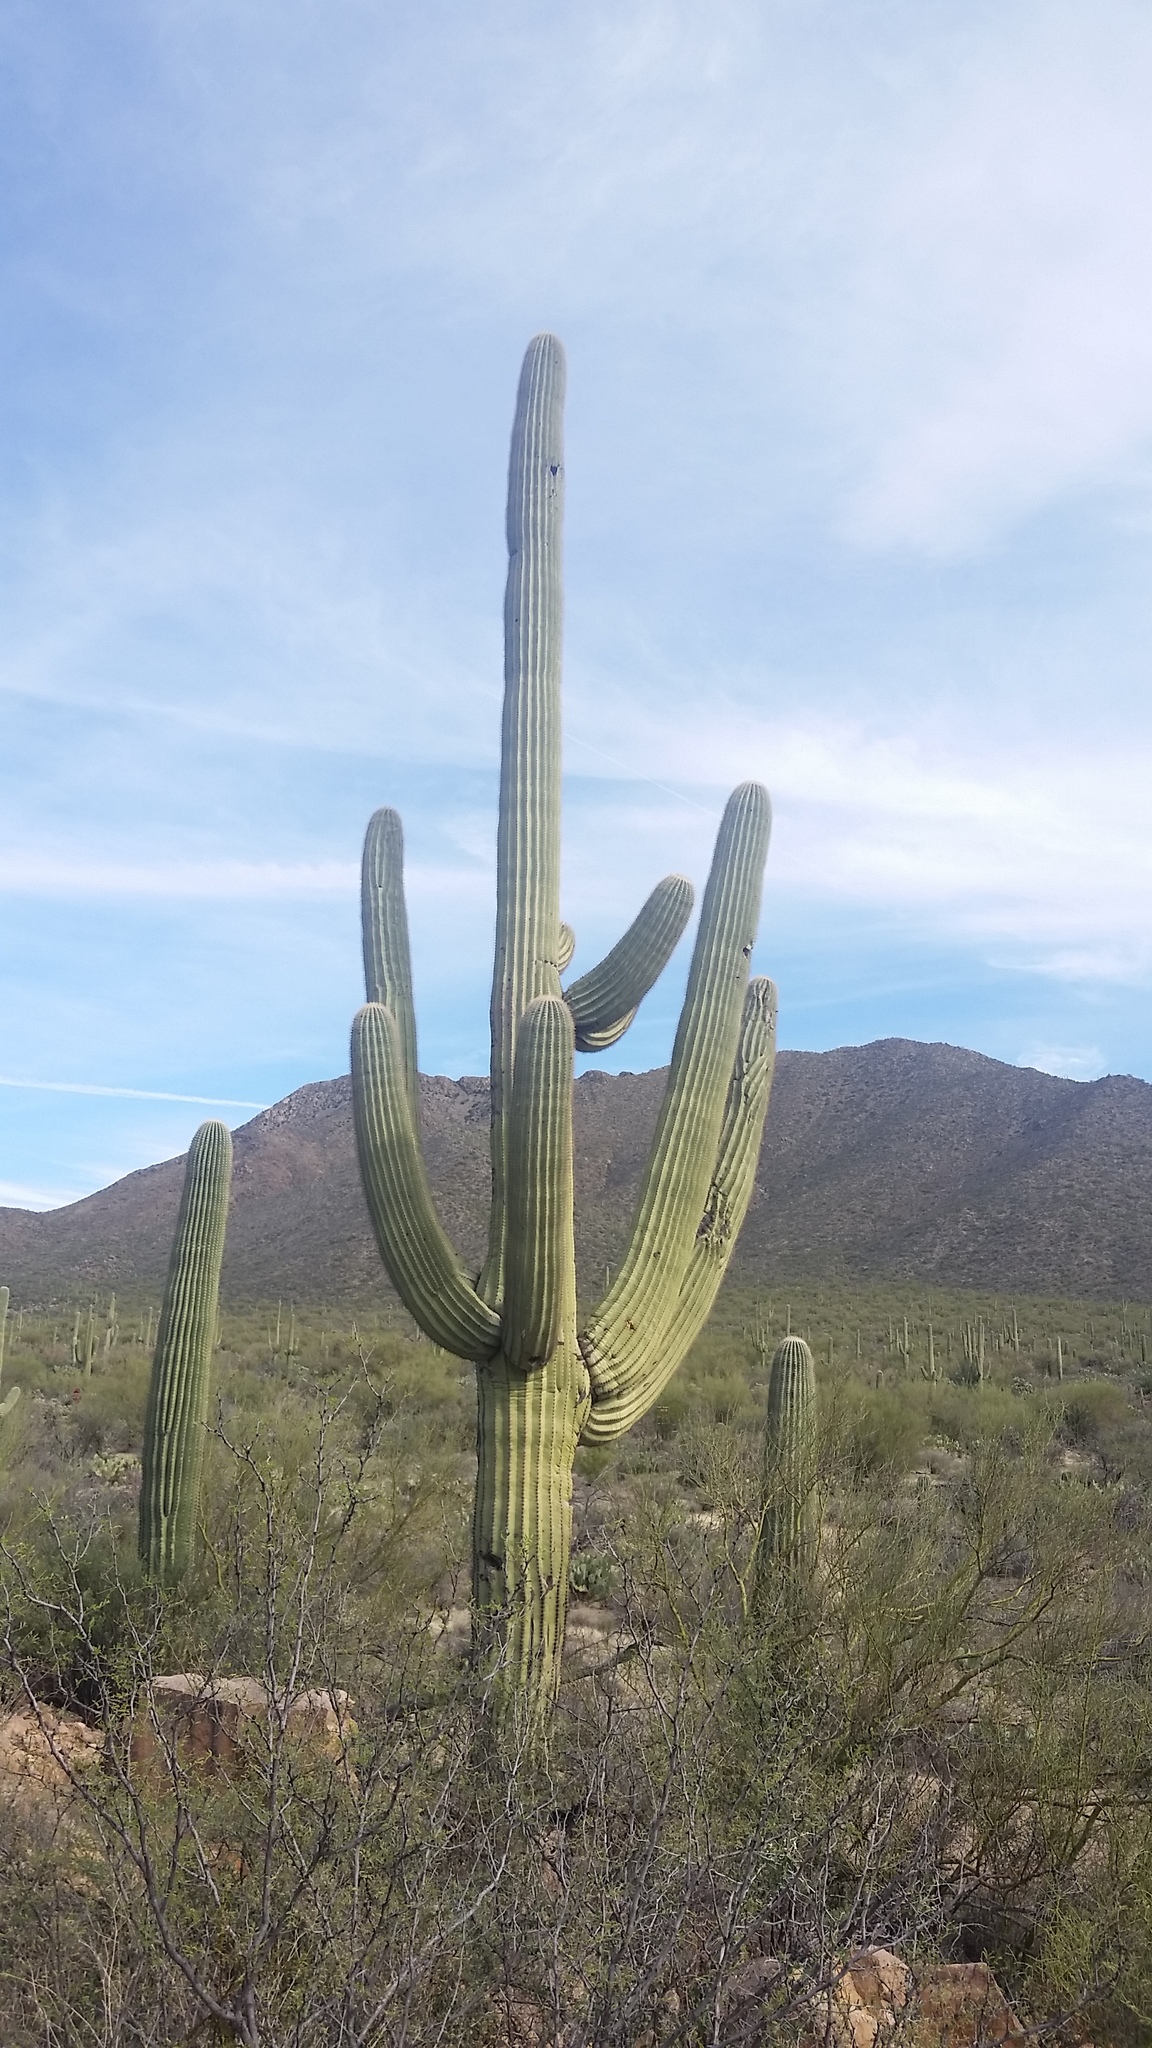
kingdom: Plantae
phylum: Tracheophyta
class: Magnoliopsida
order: Caryophyllales
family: Cactaceae
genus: Carnegiea
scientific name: Carnegiea gigantea
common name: Saguaro
